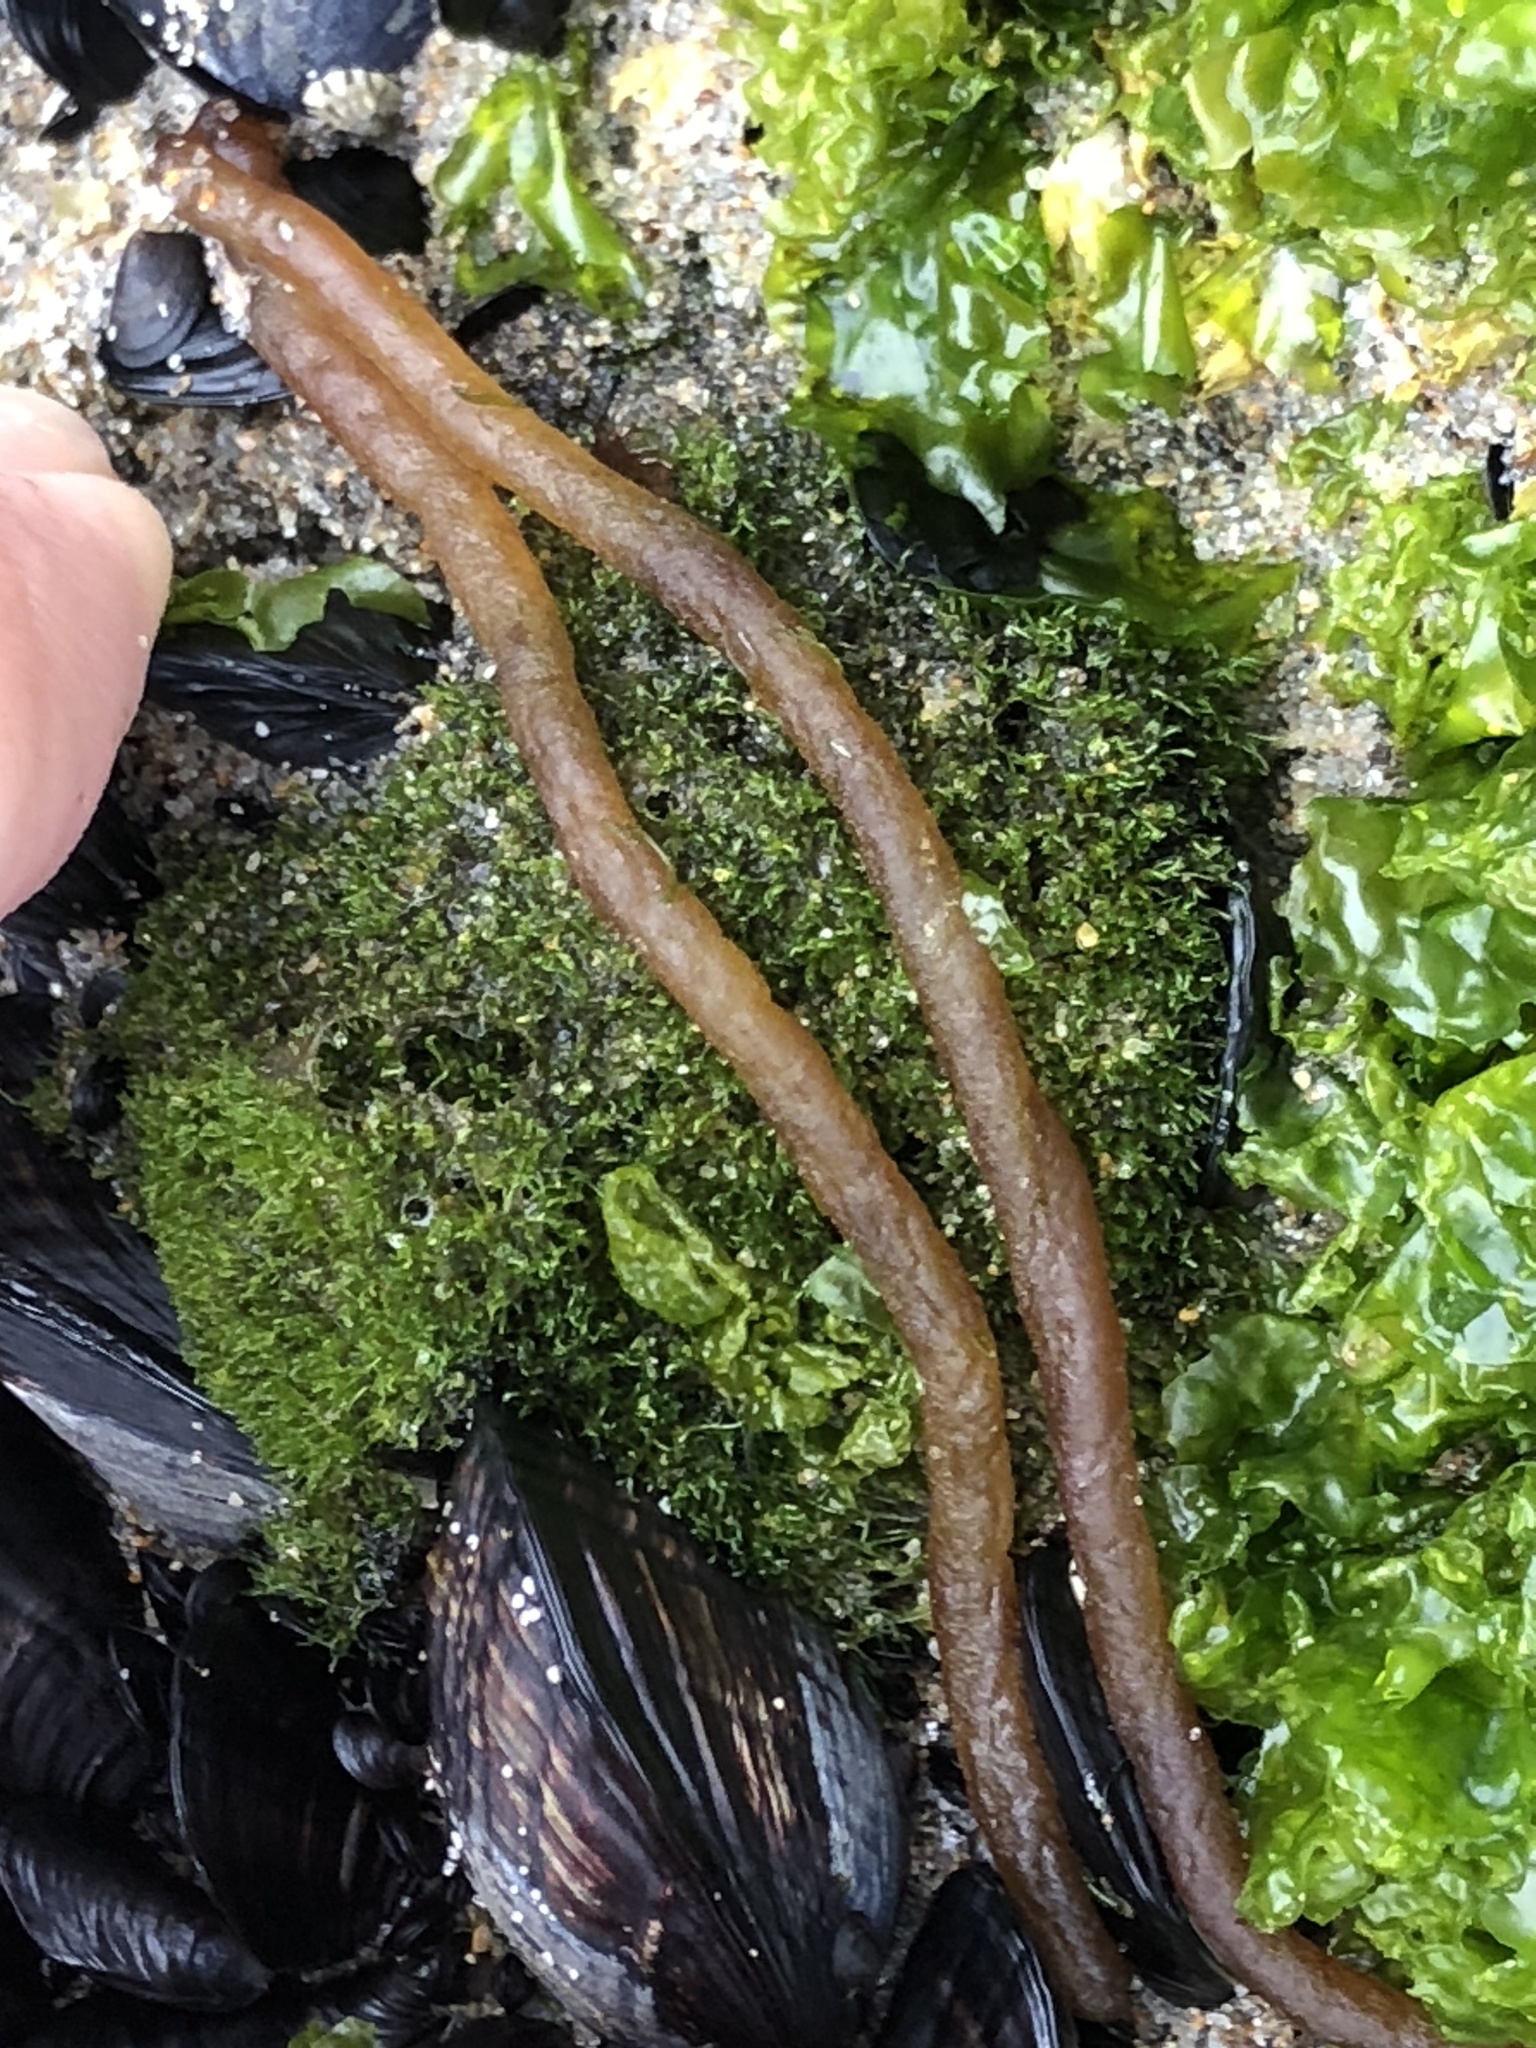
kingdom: Plantae
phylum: Rhodophyta
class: Florideophyceae
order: Nemaliales
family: Nemaliaceae
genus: Nemalion
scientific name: Nemalion elminthoides
